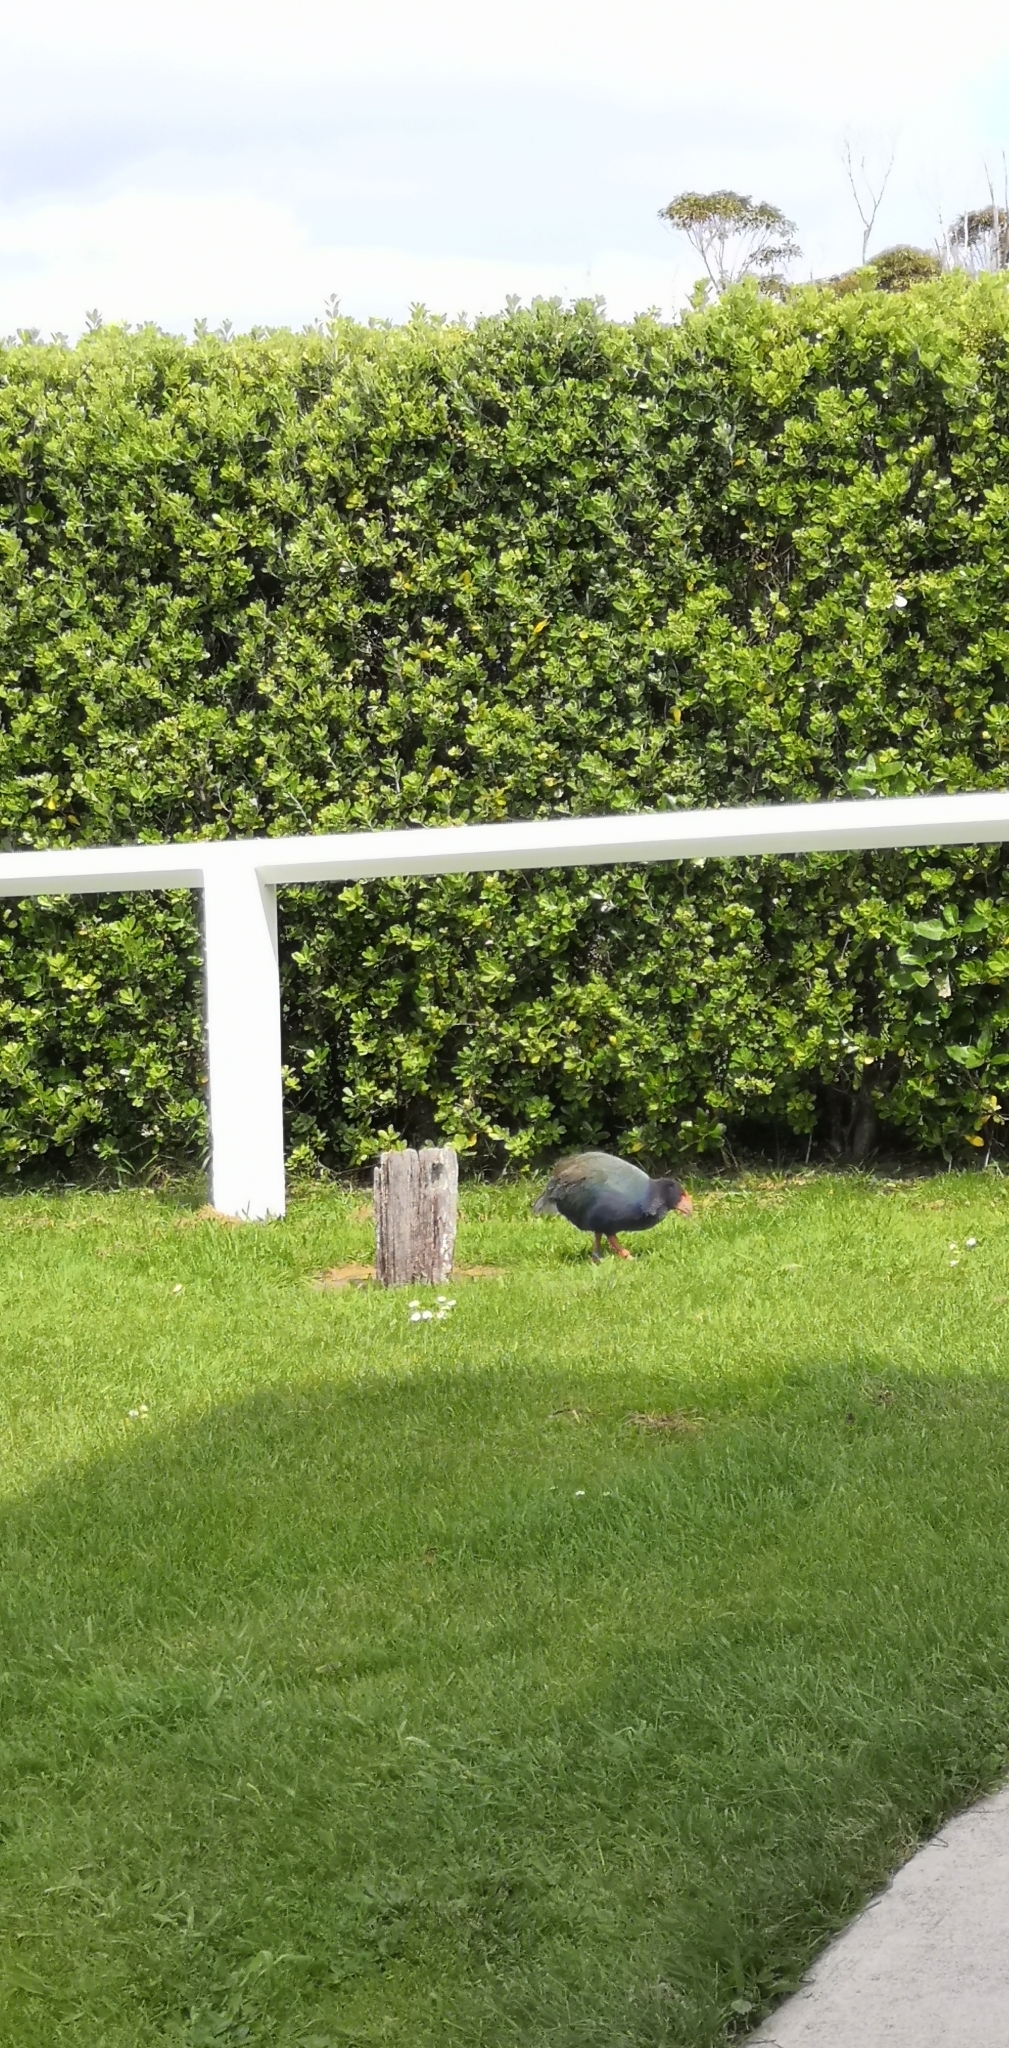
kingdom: Animalia
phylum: Chordata
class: Aves
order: Gruiformes
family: Rallidae
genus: Porphyrio
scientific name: Porphyrio hochstetteri
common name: South island takahe
